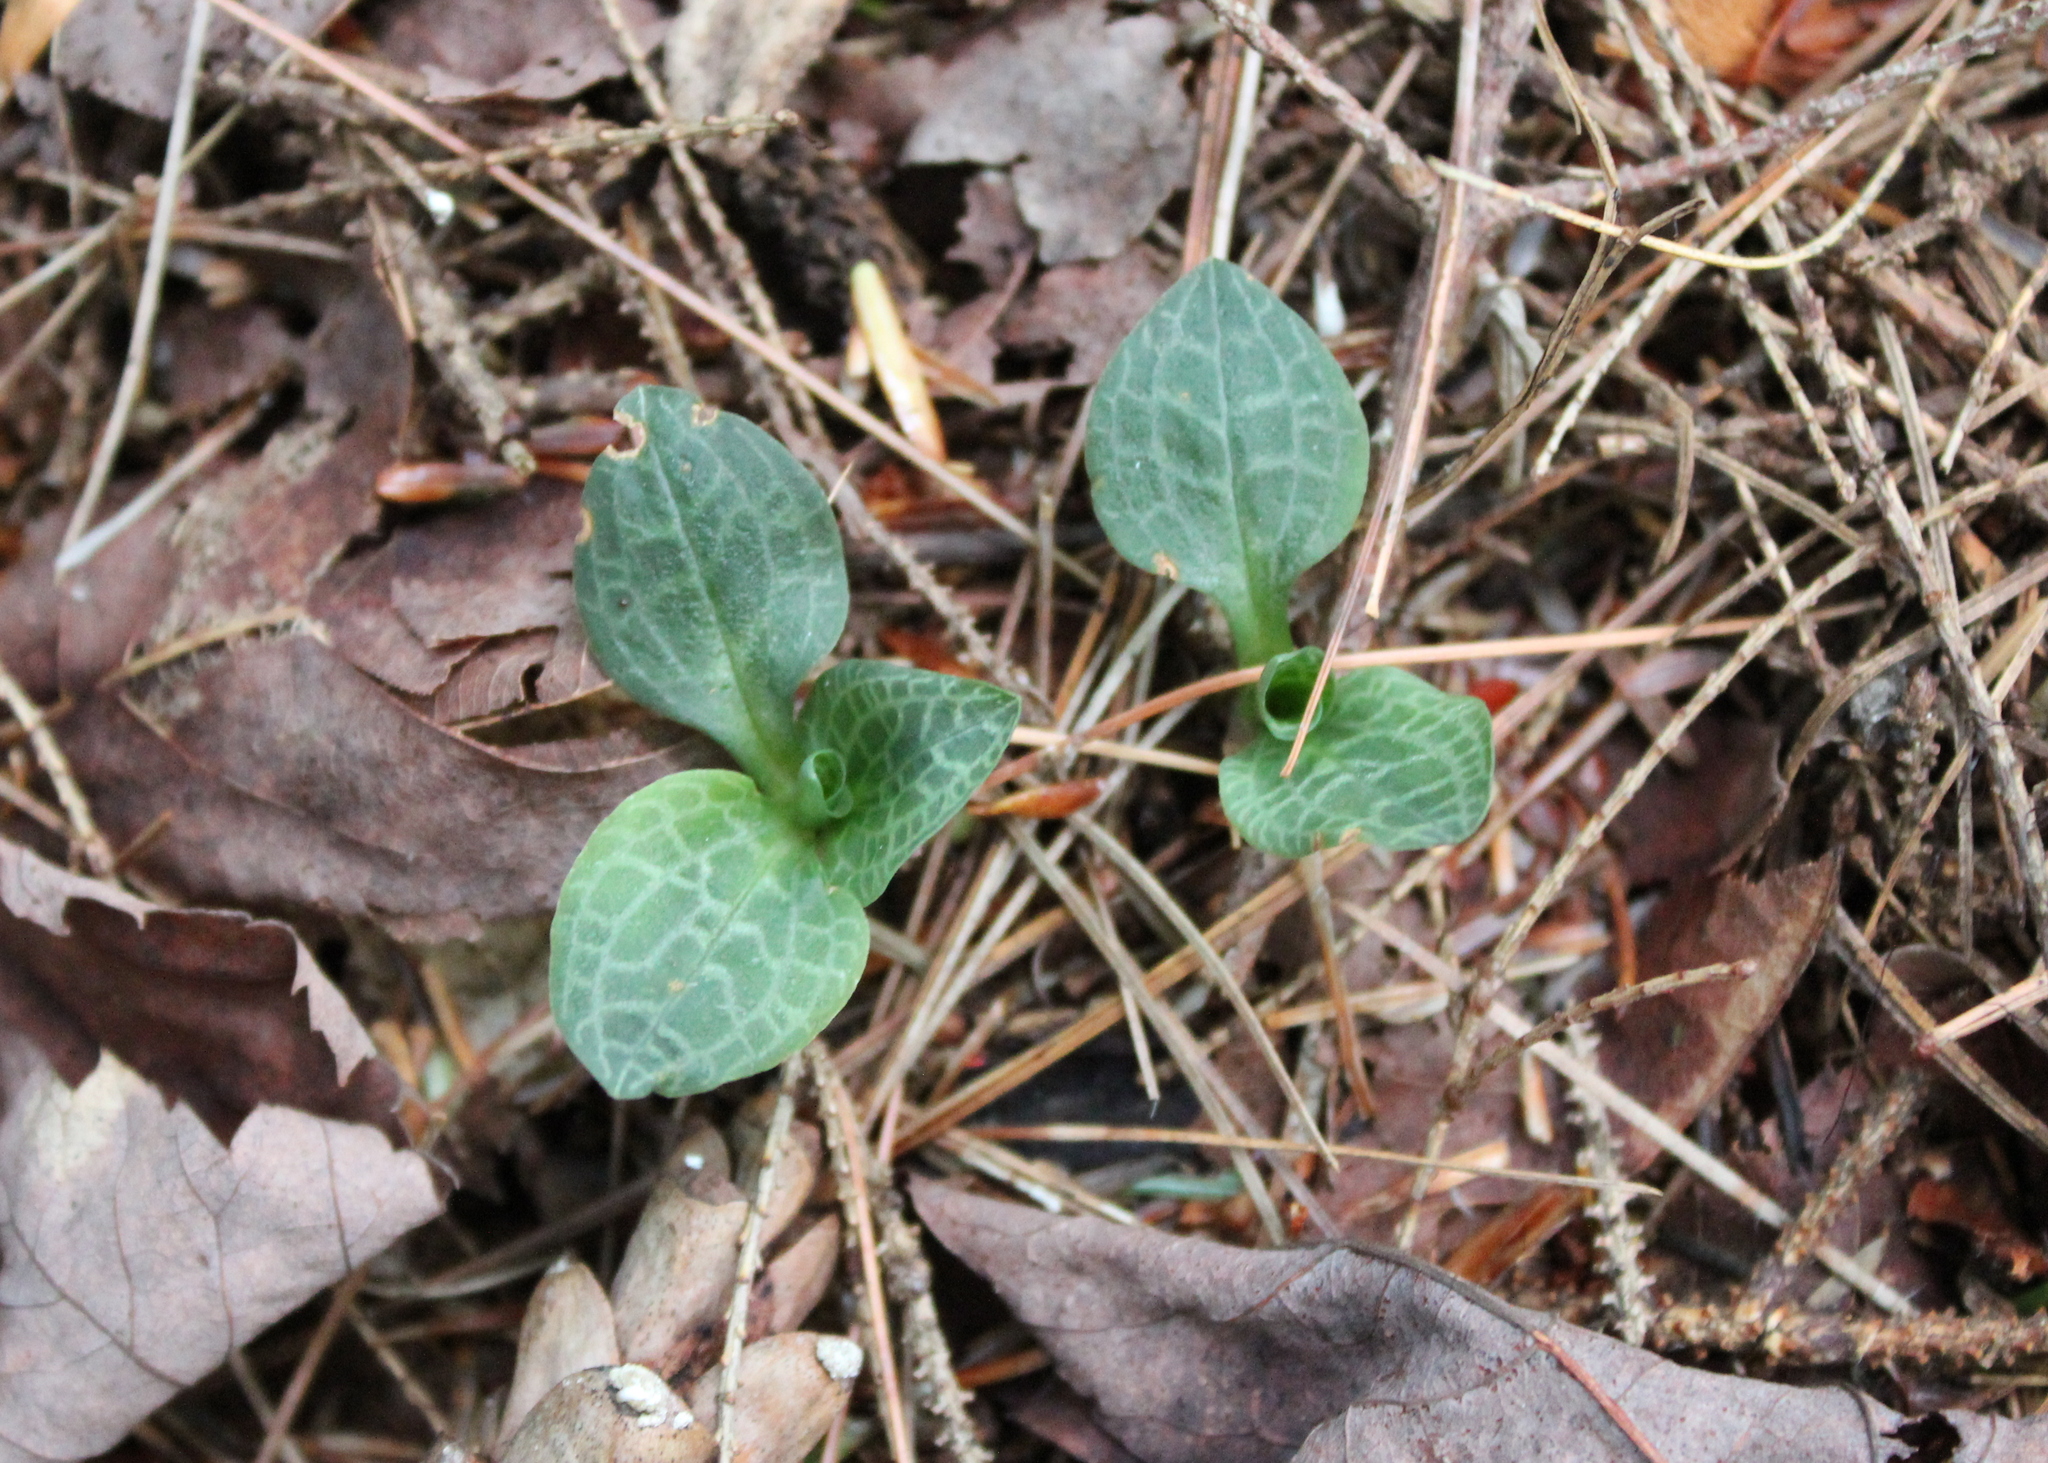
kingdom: Plantae
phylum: Tracheophyta
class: Liliopsida
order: Asparagales
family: Orchidaceae
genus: Goodyera
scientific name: Goodyera tesselata
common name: Checkered rattlesnake-plantain
